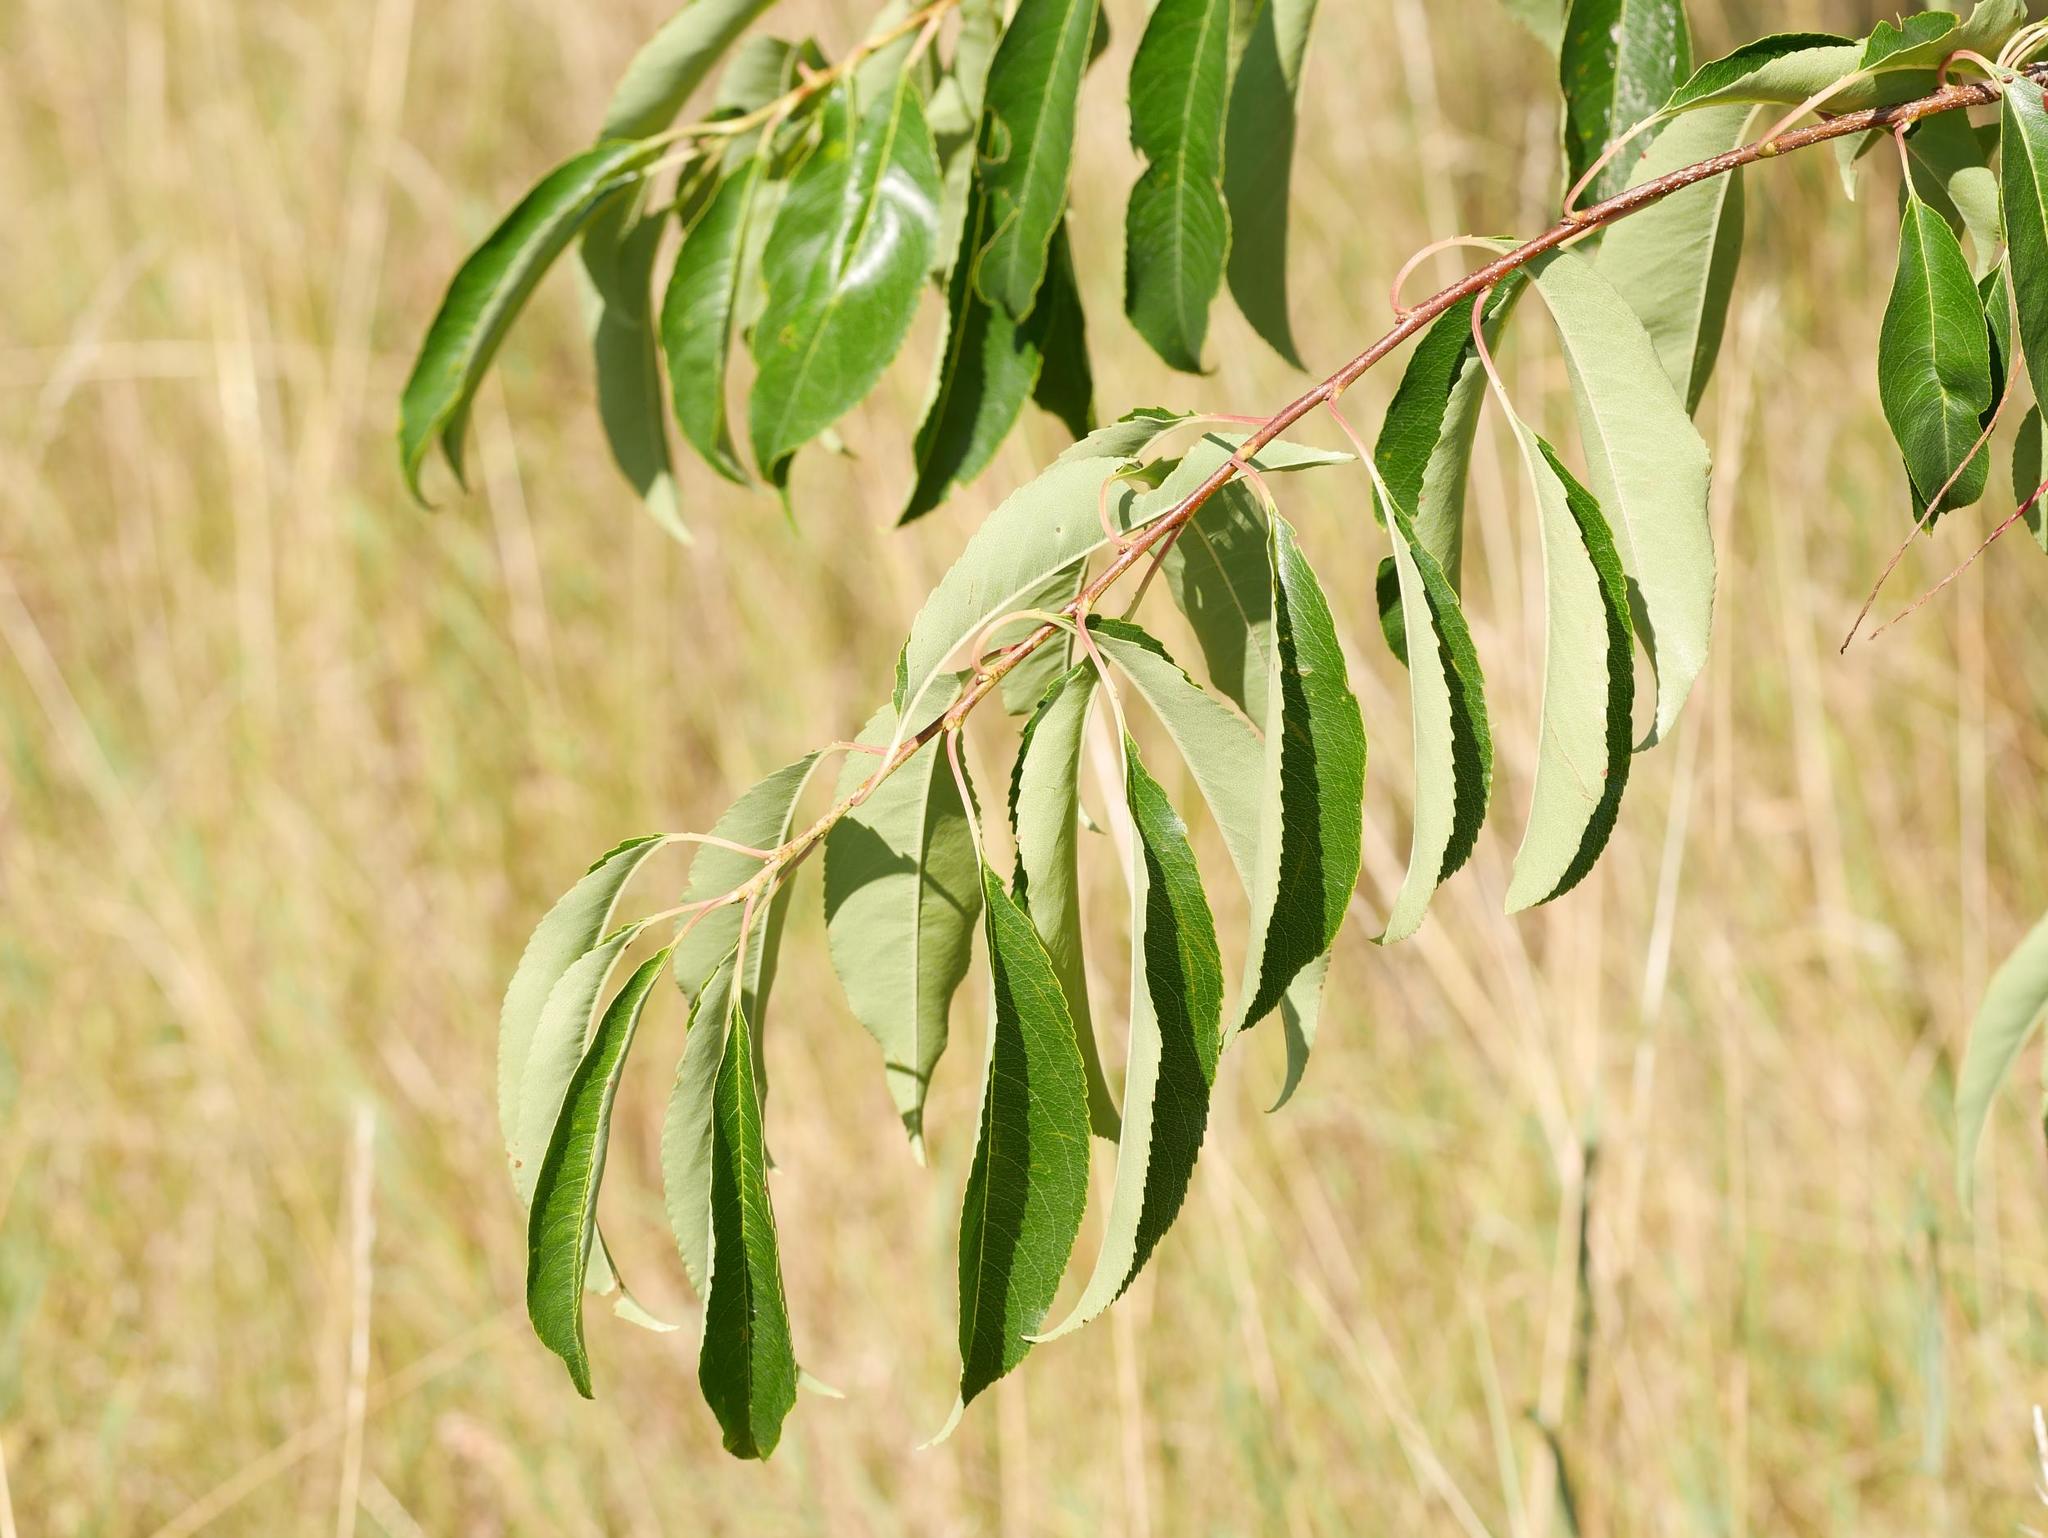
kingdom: Plantae
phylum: Tracheophyta
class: Magnoliopsida
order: Rosales
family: Rosaceae
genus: Prunus
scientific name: Prunus serotina
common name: Black cherry
